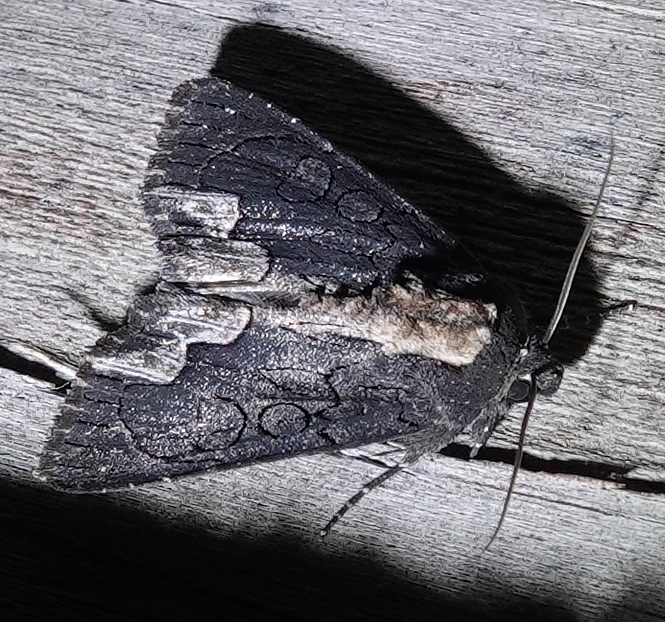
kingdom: Animalia
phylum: Arthropoda
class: Insecta
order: Lepidoptera
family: Noctuidae
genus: Dypterygia
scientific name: Dypterygia rozmani
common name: American bird's-wing
